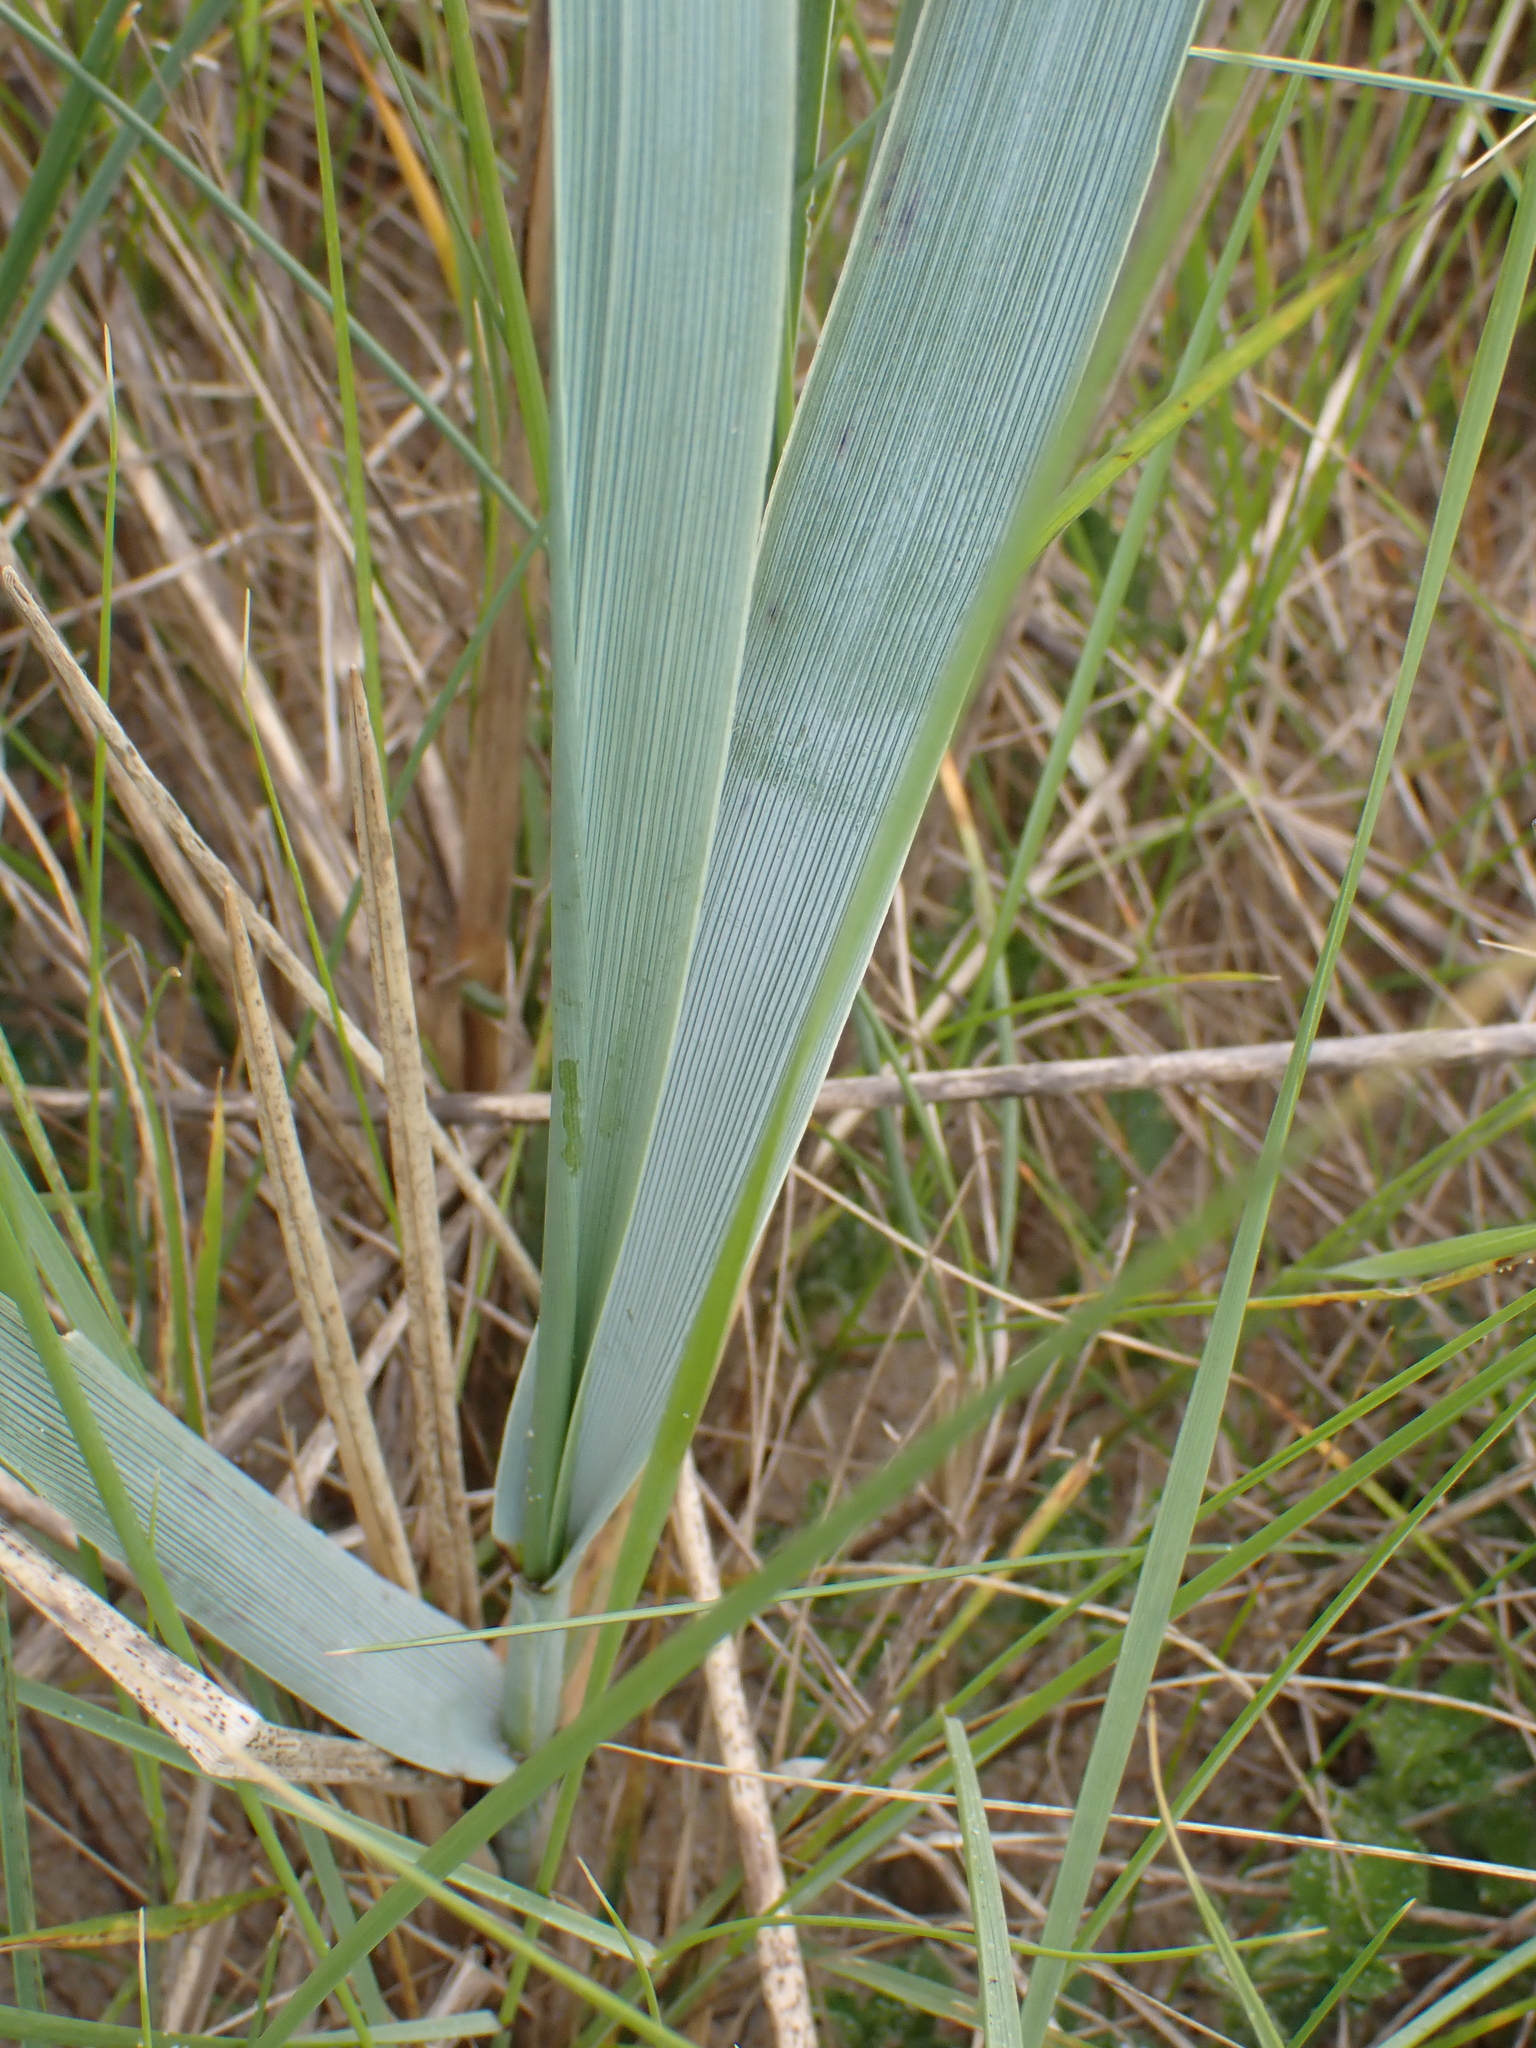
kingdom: Plantae
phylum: Tracheophyta
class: Liliopsida
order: Poales
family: Poaceae
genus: Leymus
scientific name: Leymus arenarius
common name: Lyme-grass
